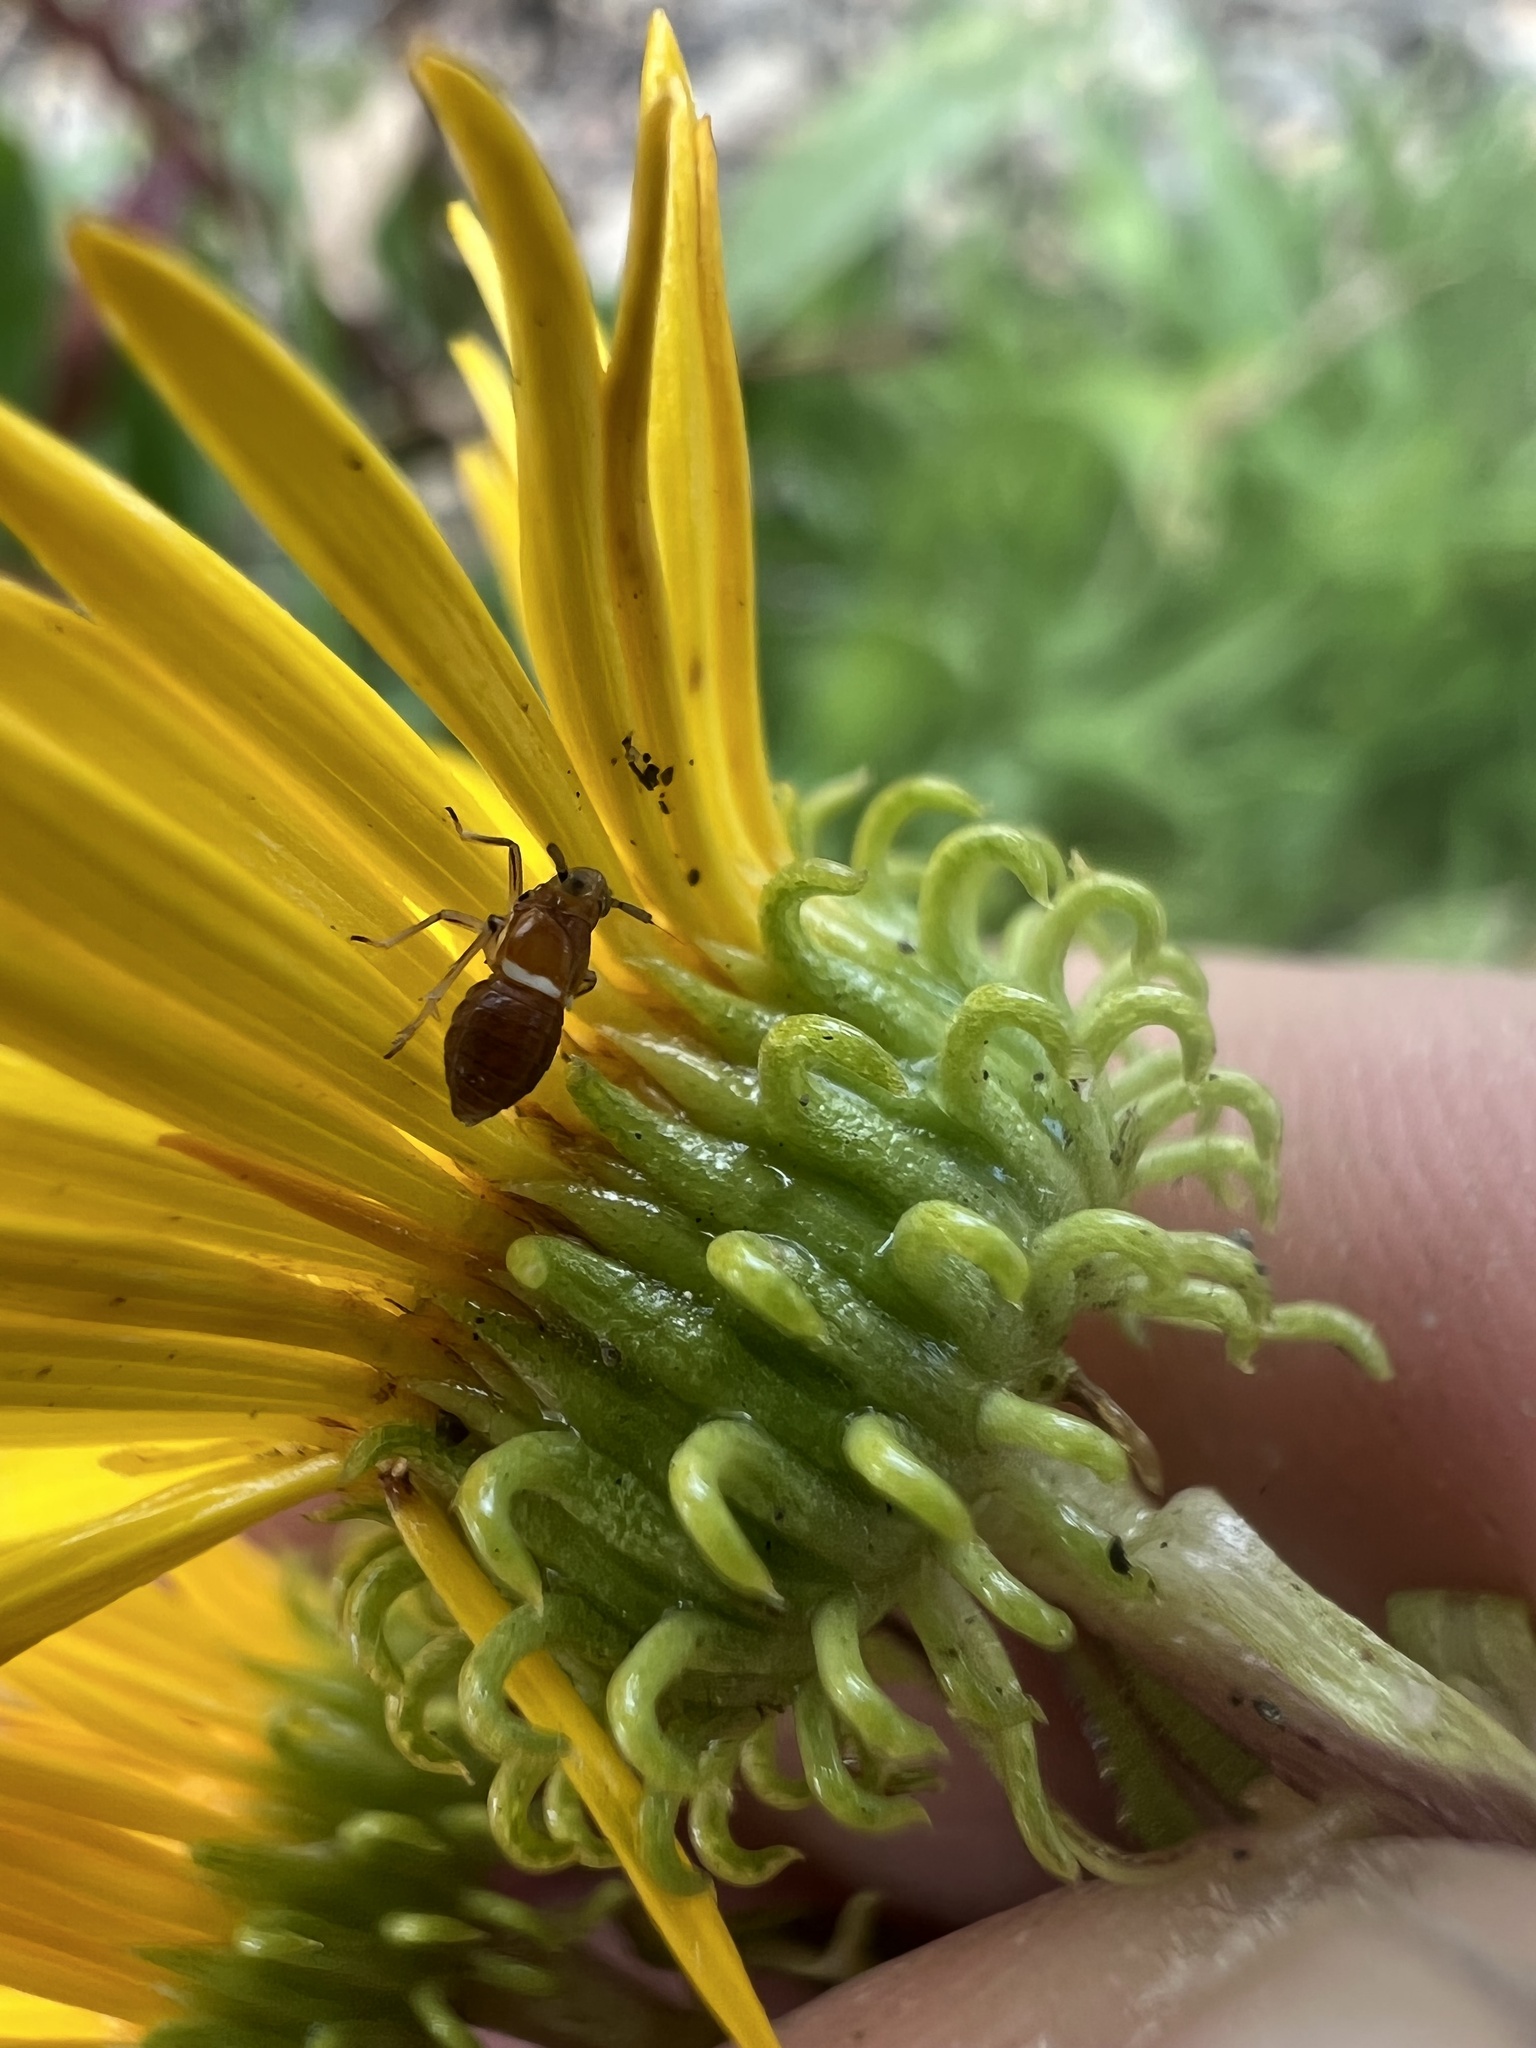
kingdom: Animalia
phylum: Arthropoda
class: Insecta
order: Hemiptera
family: Delphacidae
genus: Pissonotus
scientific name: Pissonotus delicatus
